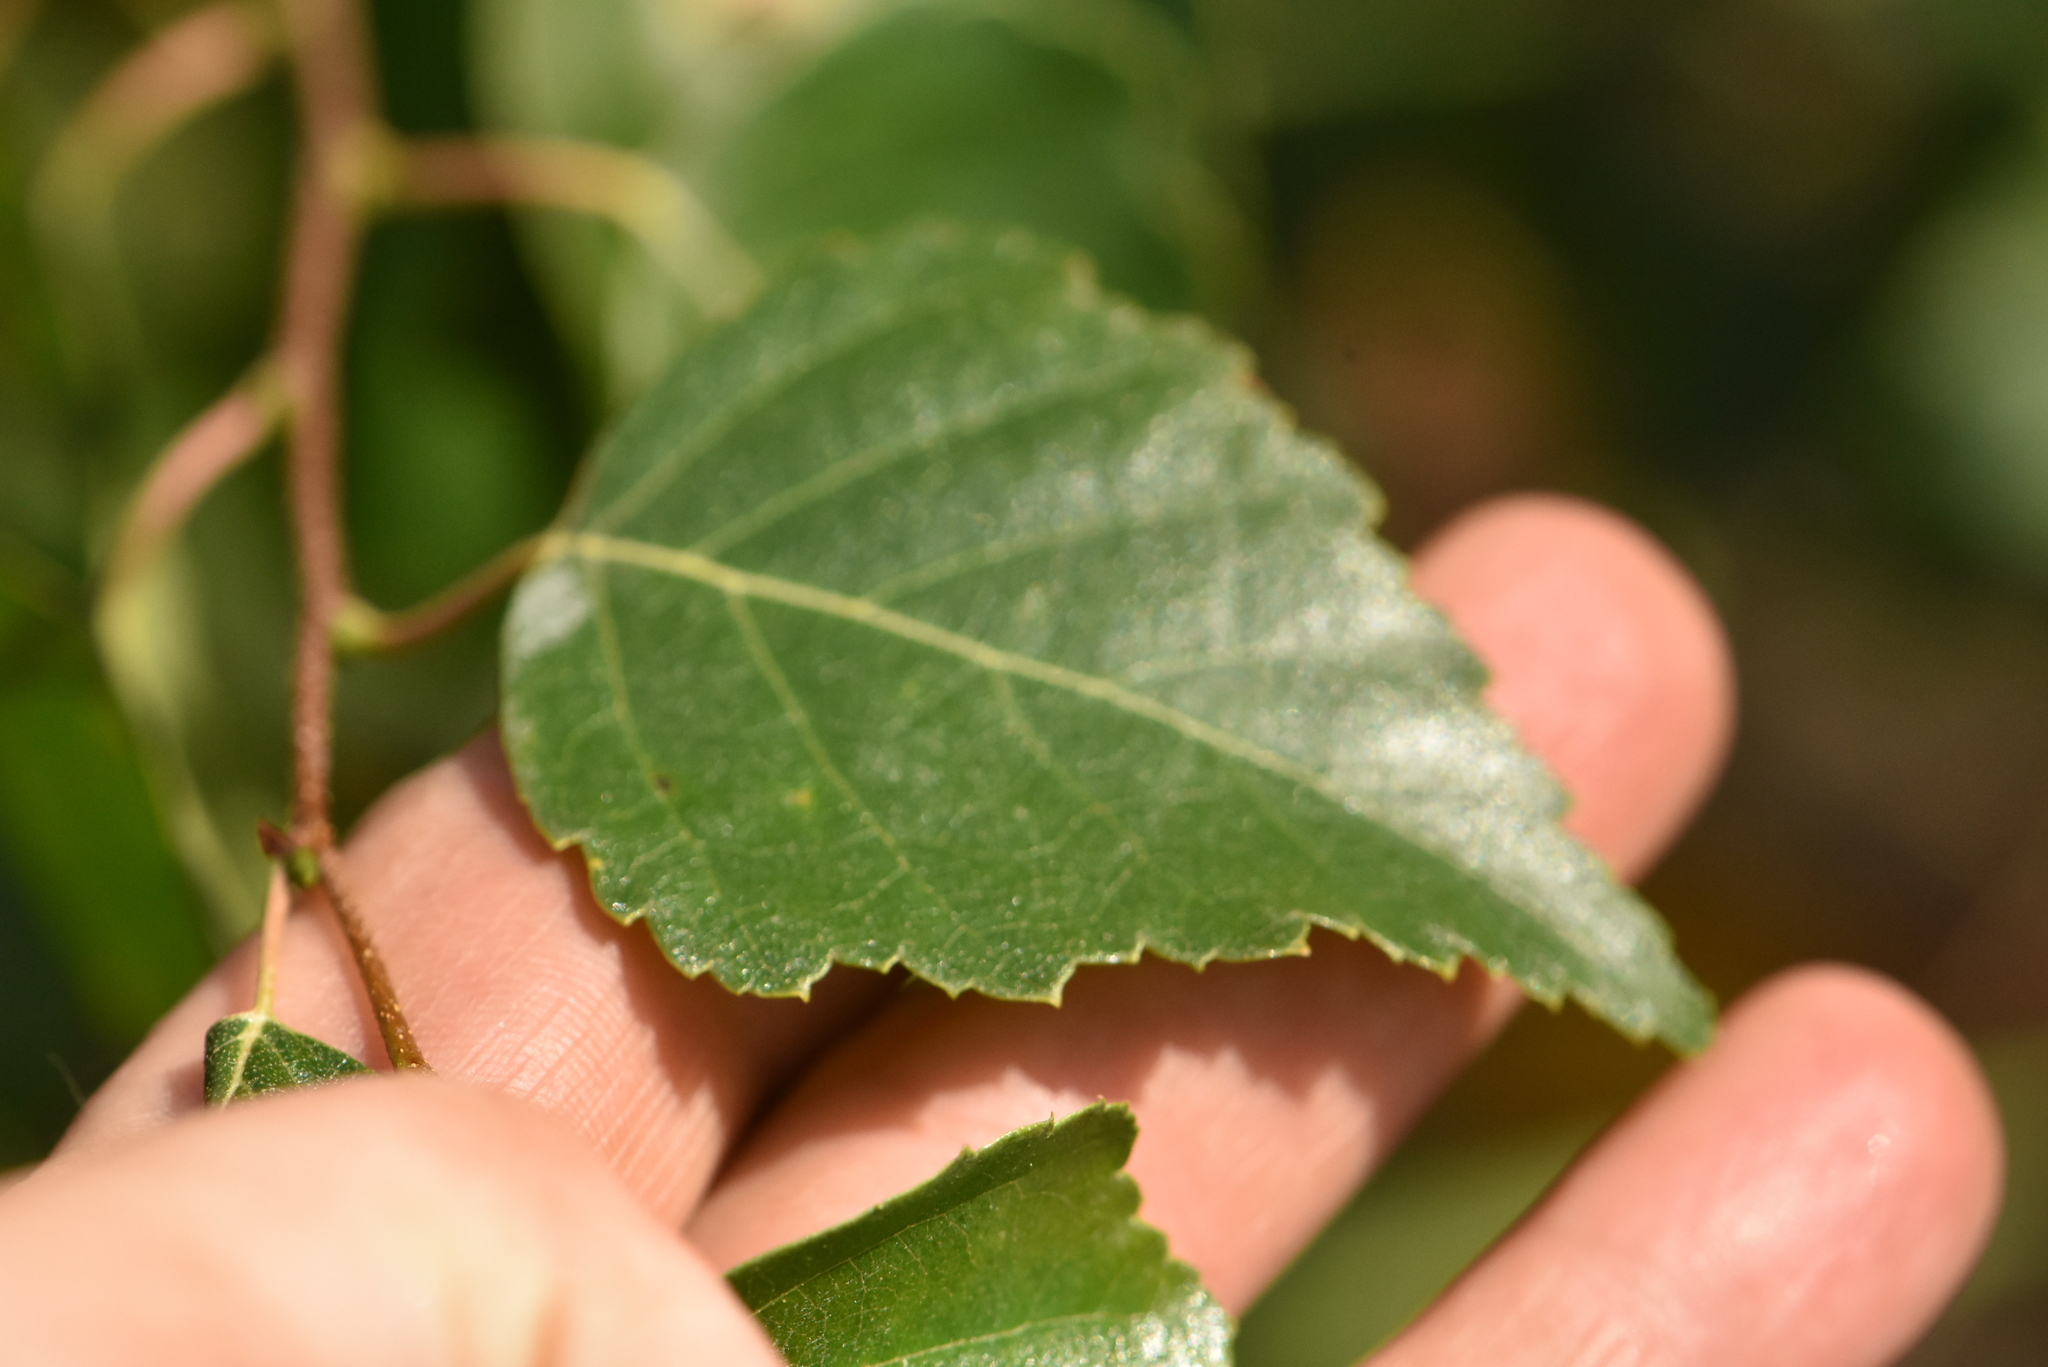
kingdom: Plantae
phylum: Tracheophyta
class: Magnoliopsida
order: Fagales
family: Betulaceae
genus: Betula
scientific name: Betula pendula
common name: Silver birch
